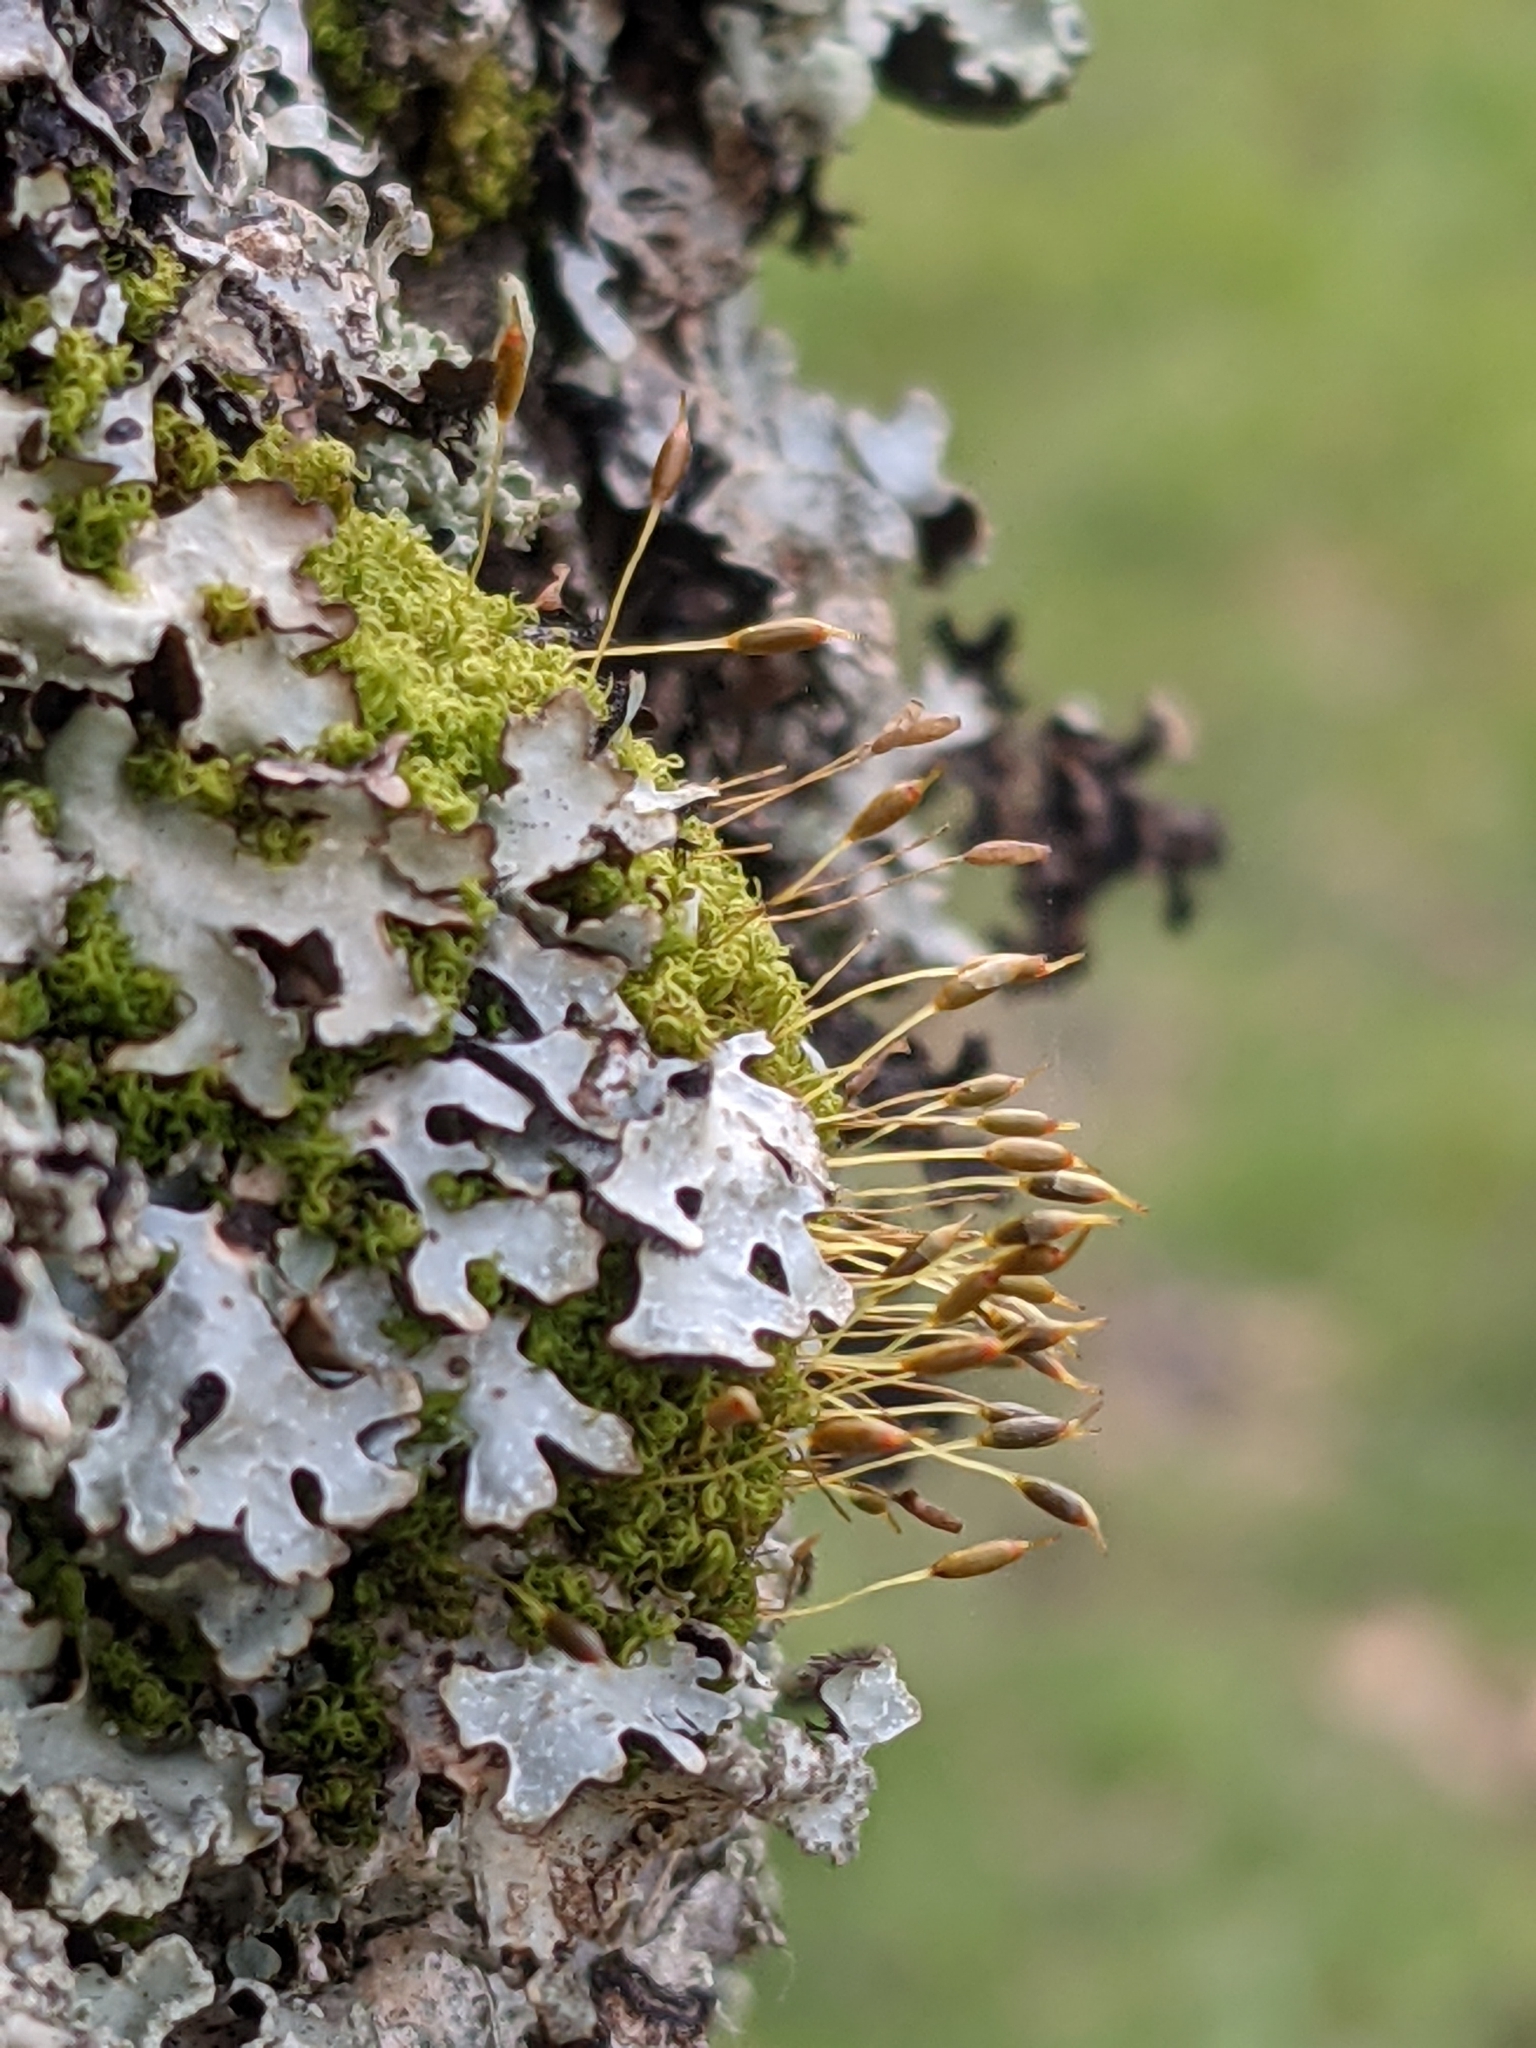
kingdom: Plantae
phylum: Bryophyta
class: Bryopsida
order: Dicranales
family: Rhabdoweisiaceae
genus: Dicranoweisia
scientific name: Dicranoweisia cirrata
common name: Common pincushion
